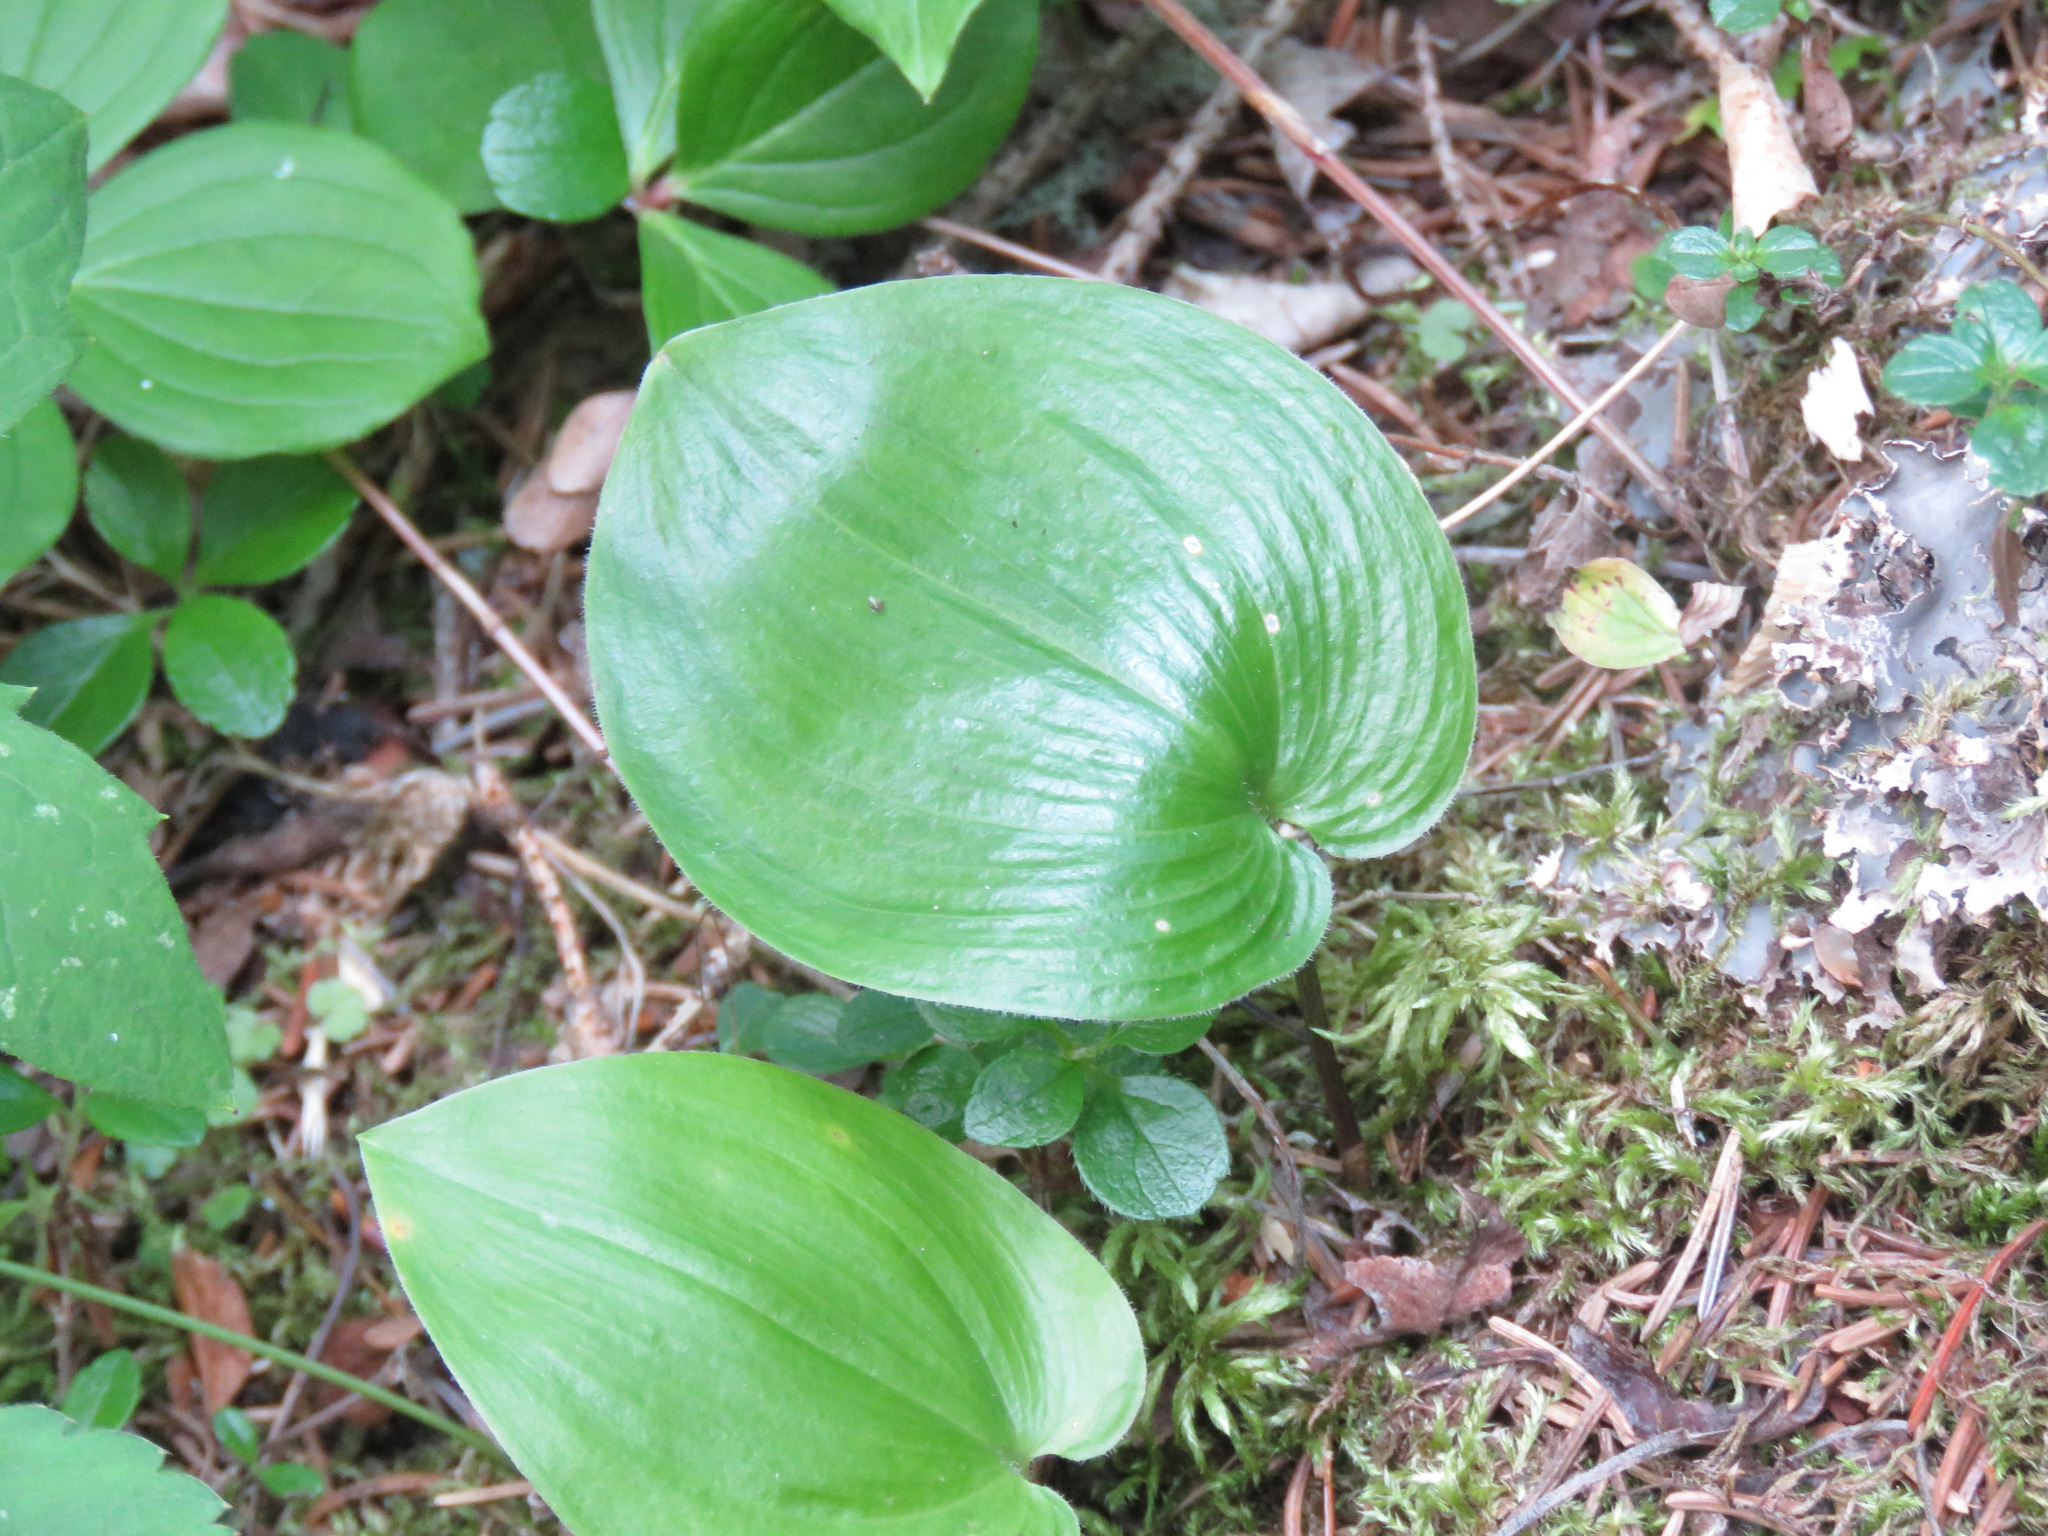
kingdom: Plantae
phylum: Tracheophyta
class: Liliopsida
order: Asparagales
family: Asparagaceae
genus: Maianthemum
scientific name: Maianthemum canadense
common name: False lily-of-the-valley
